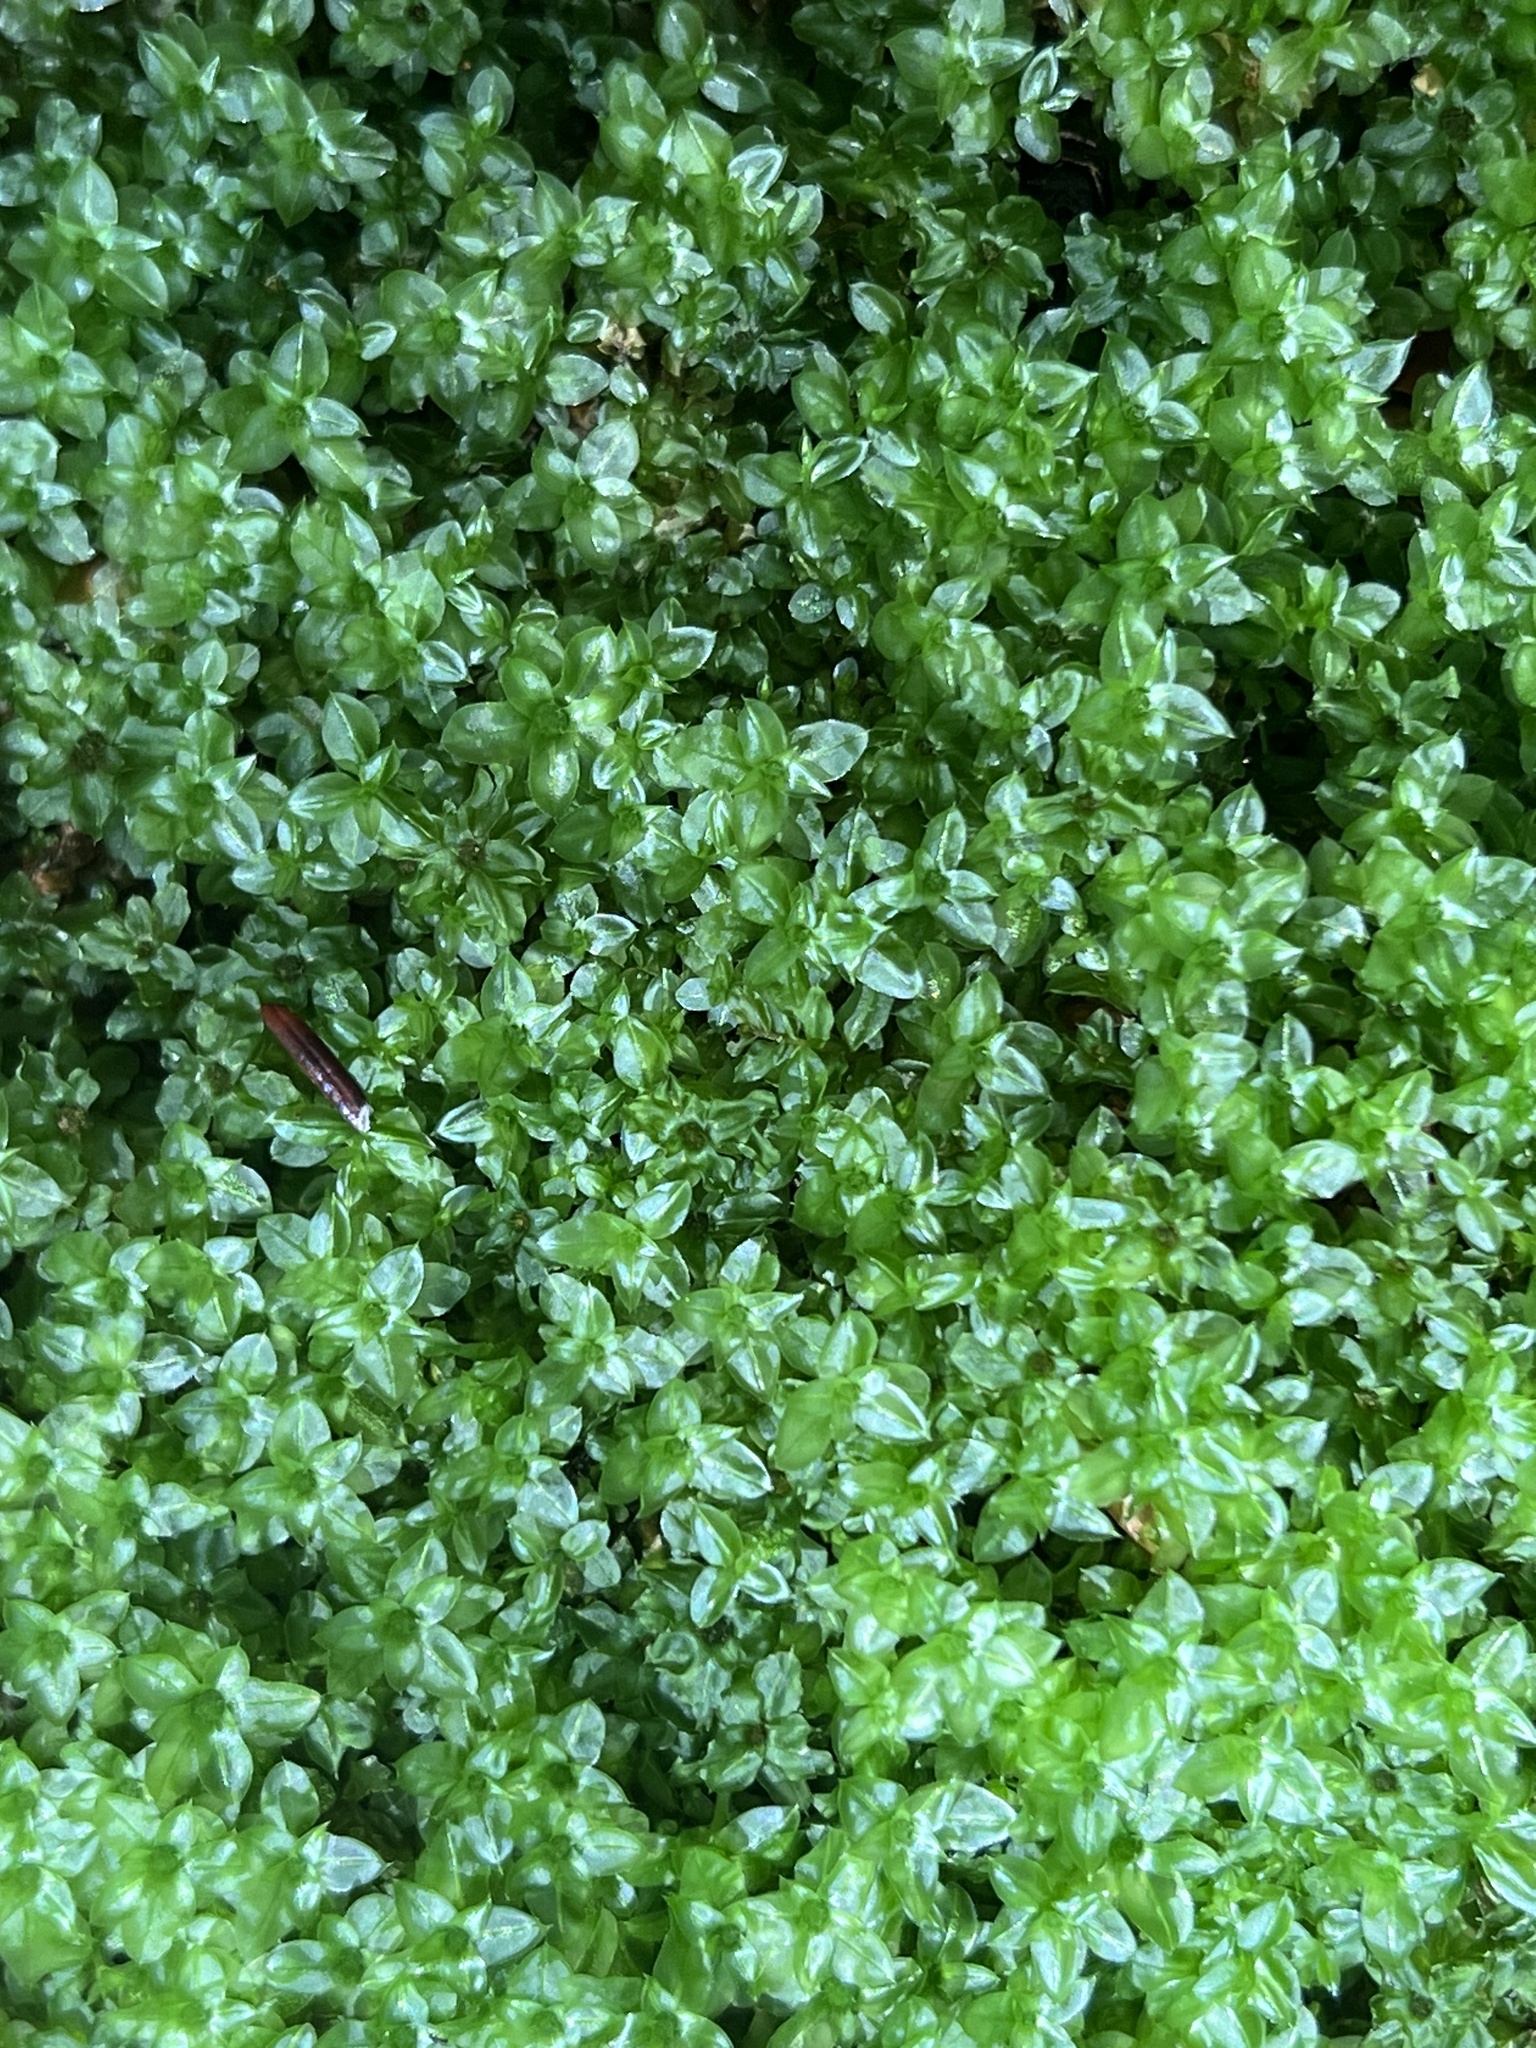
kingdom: Plantae
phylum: Bryophyta
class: Bryopsida
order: Bryales
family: Mniaceae
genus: Plagiomnium
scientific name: Plagiomnium ciliare
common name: Toothed leafy moss
